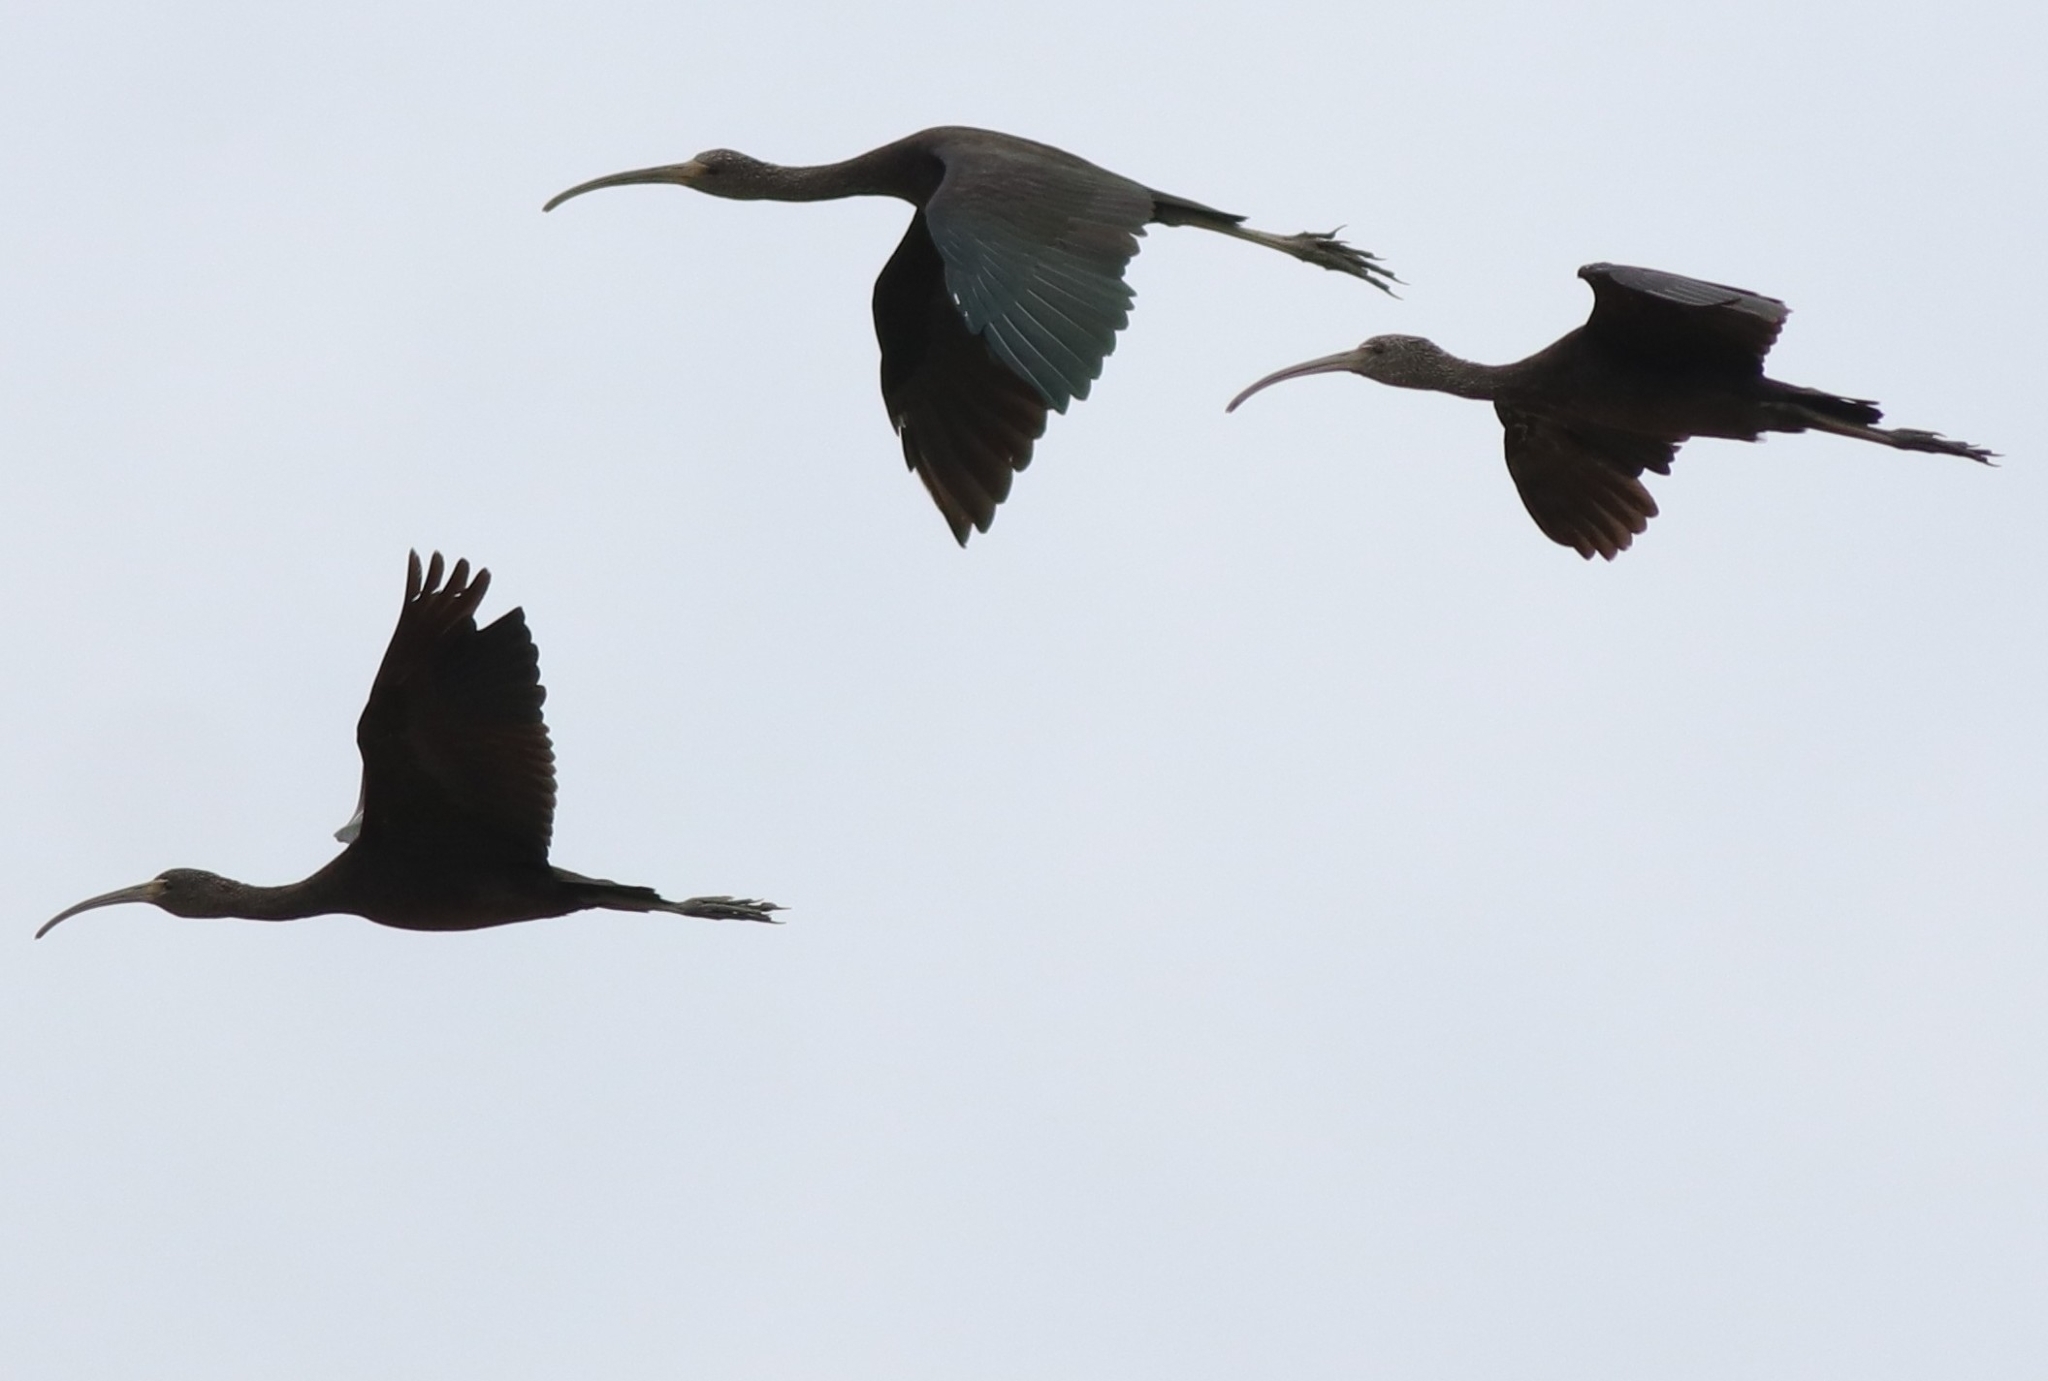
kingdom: Animalia
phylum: Chordata
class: Aves
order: Pelecaniformes
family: Threskiornithidae
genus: Plegadis
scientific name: Plegadis falcinellus
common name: Glossy ibis
